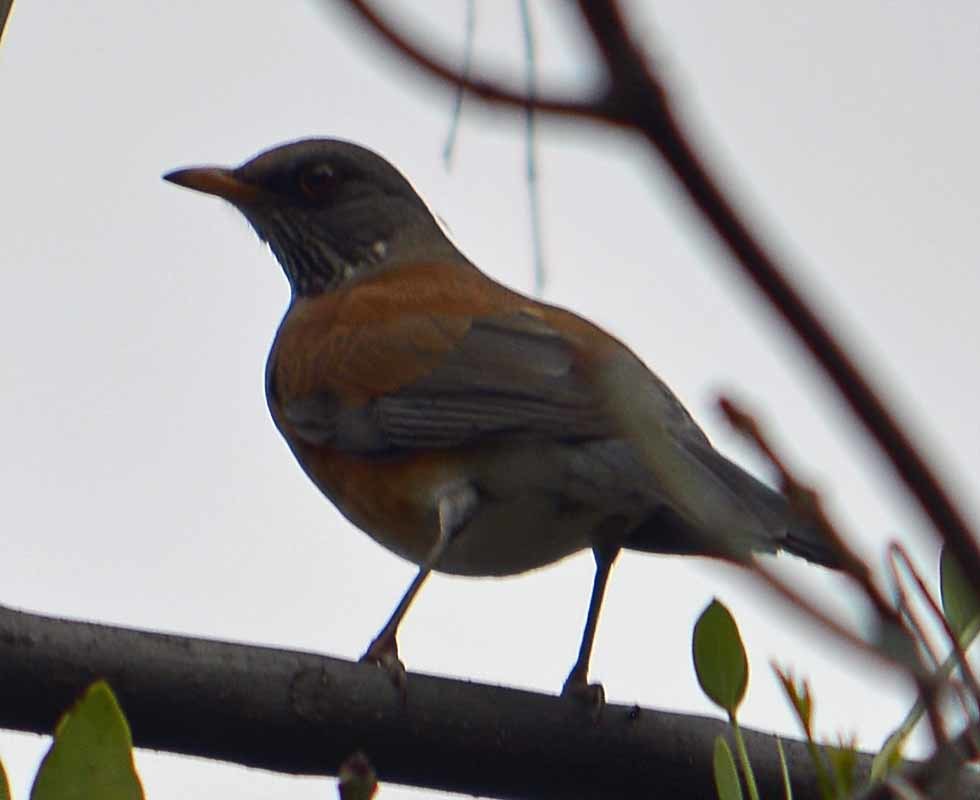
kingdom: Animalia
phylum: Chordata
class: Aves
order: Passeriformes
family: Turdidae
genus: Turdus
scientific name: Turdus rufopalliatus
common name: Rufous-backed robin
